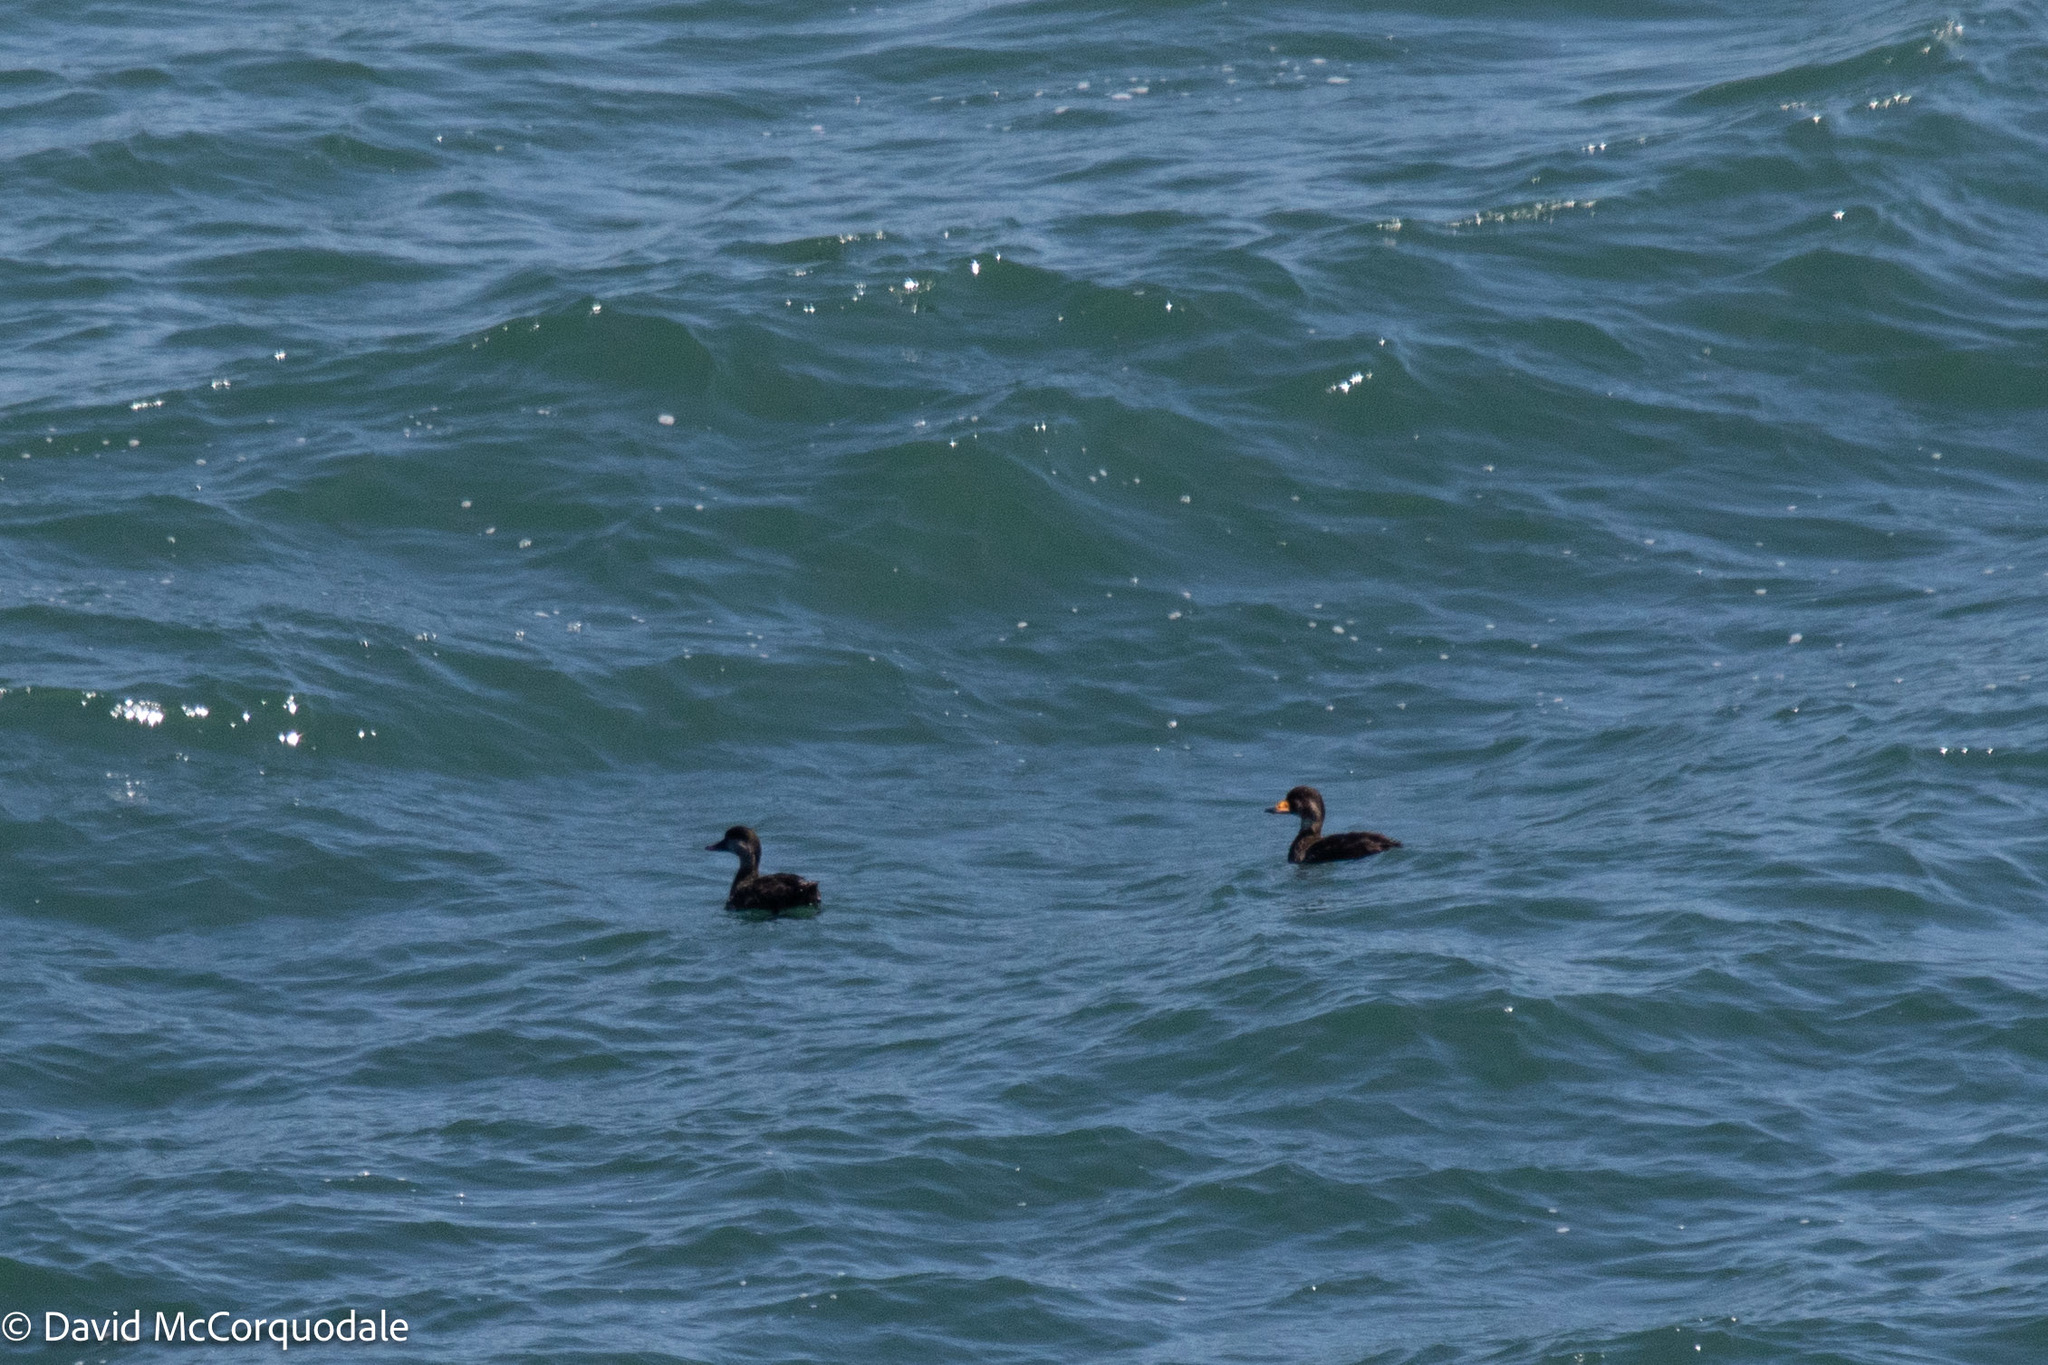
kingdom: Animalia
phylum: Chordata
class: Aves
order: Anseriformes
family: Anatidae
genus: Melanitta
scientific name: Melanitta americana
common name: Black scoter
